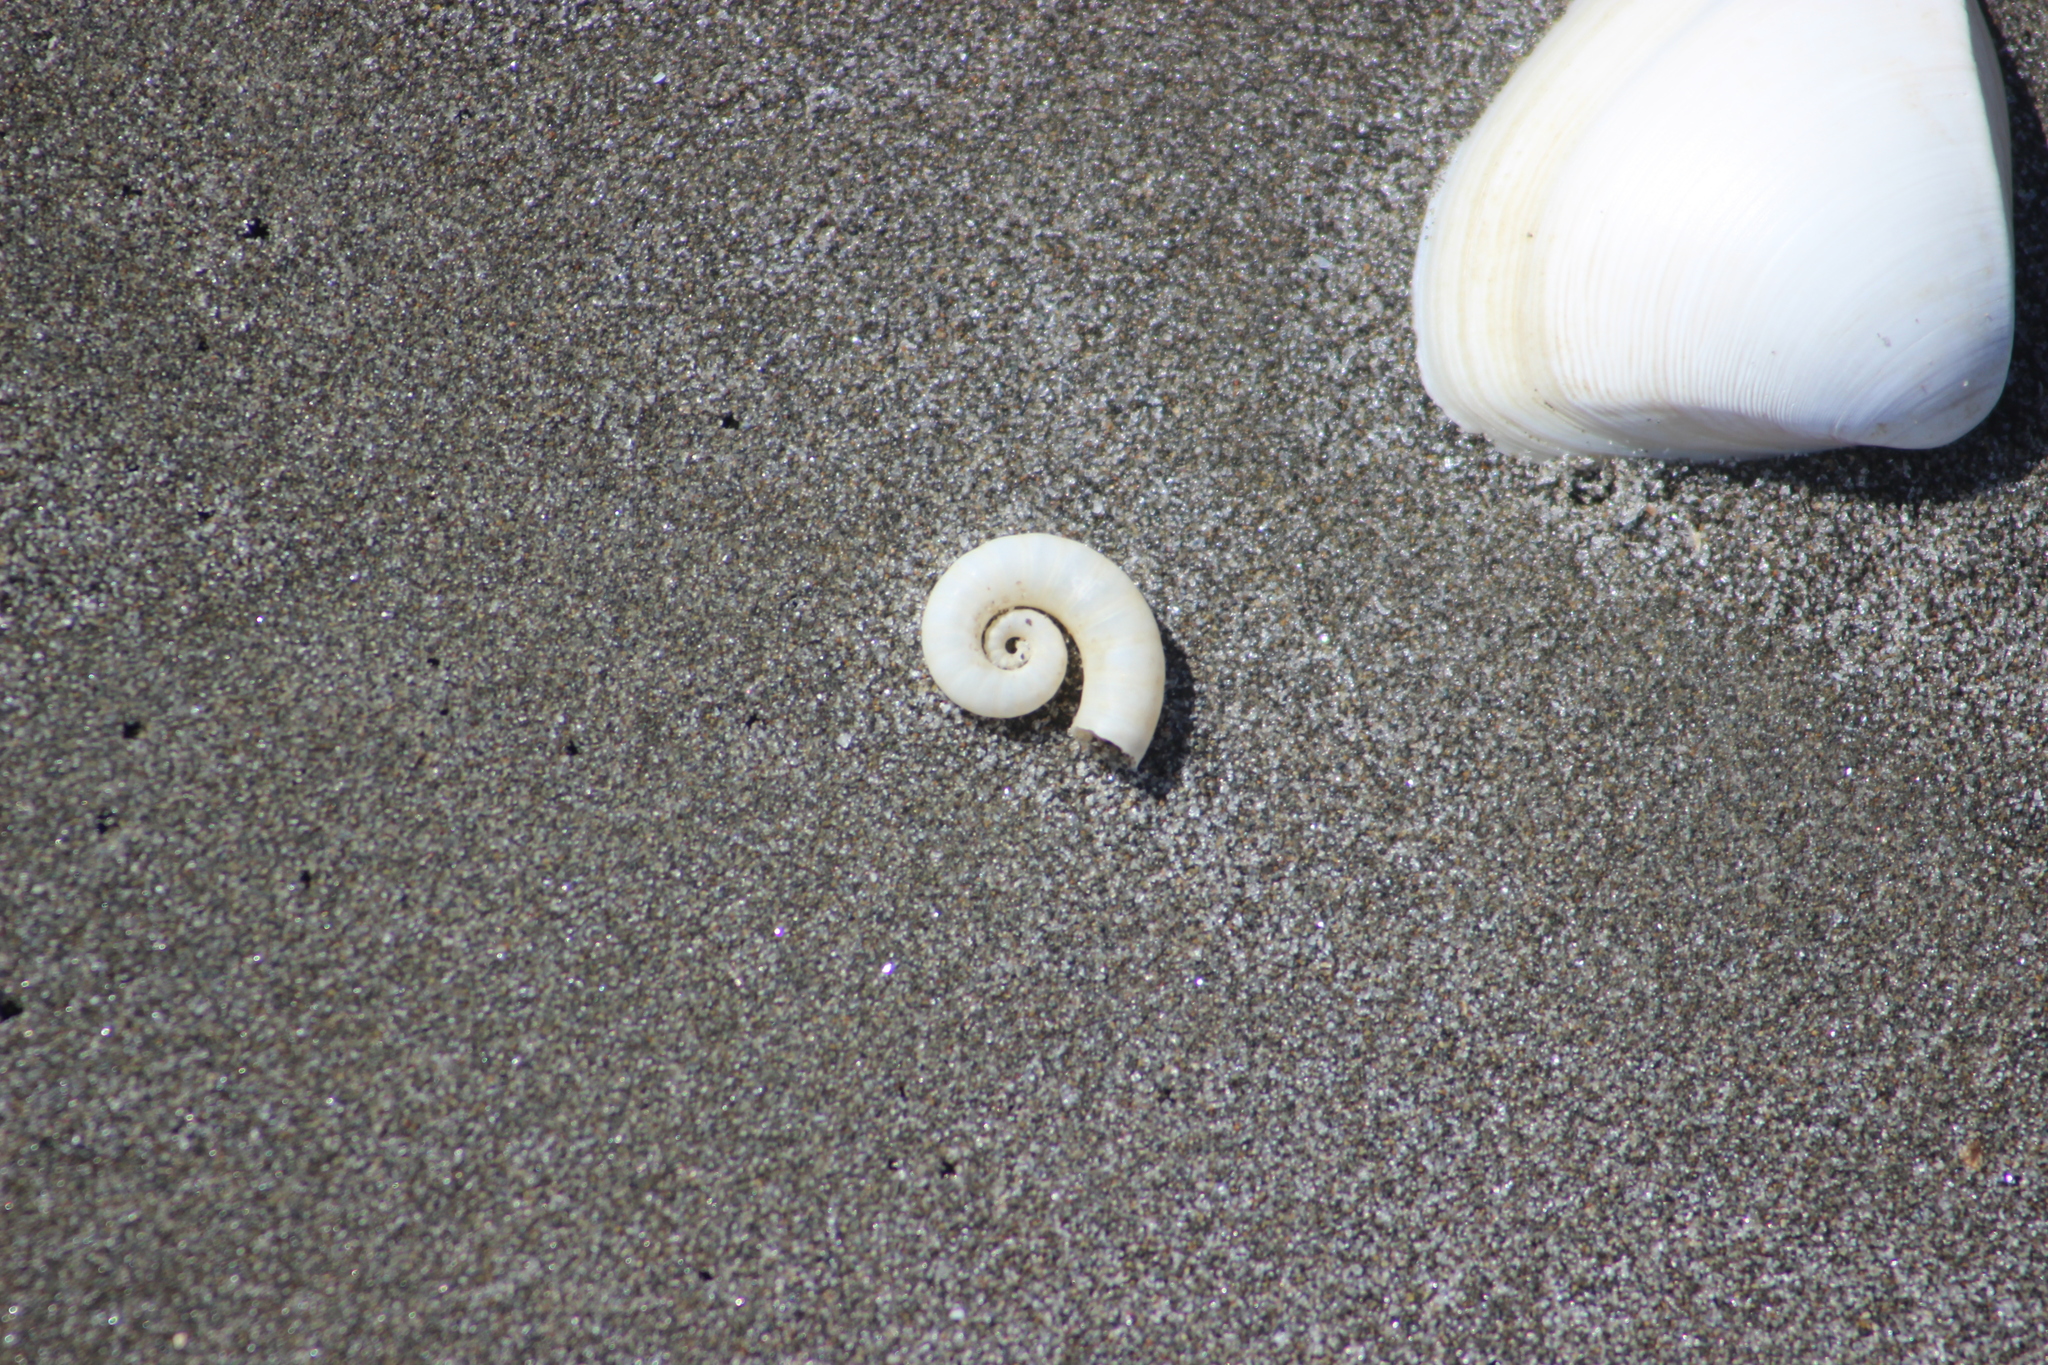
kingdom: Animalia
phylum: Mollusca
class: Cephalopoda
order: Spirulida
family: Spirulidae
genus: Spirula
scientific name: Spirula spirula
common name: Ram's horn squid
